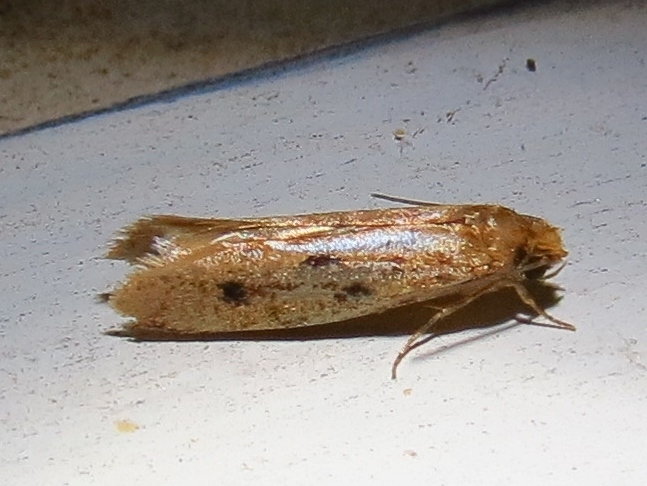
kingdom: Animalia
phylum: Arthropoda
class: Insecta
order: Lepidoptera
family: Tineidae
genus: Tinea
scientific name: Tinea pellionella
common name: Case-making clothes moth
